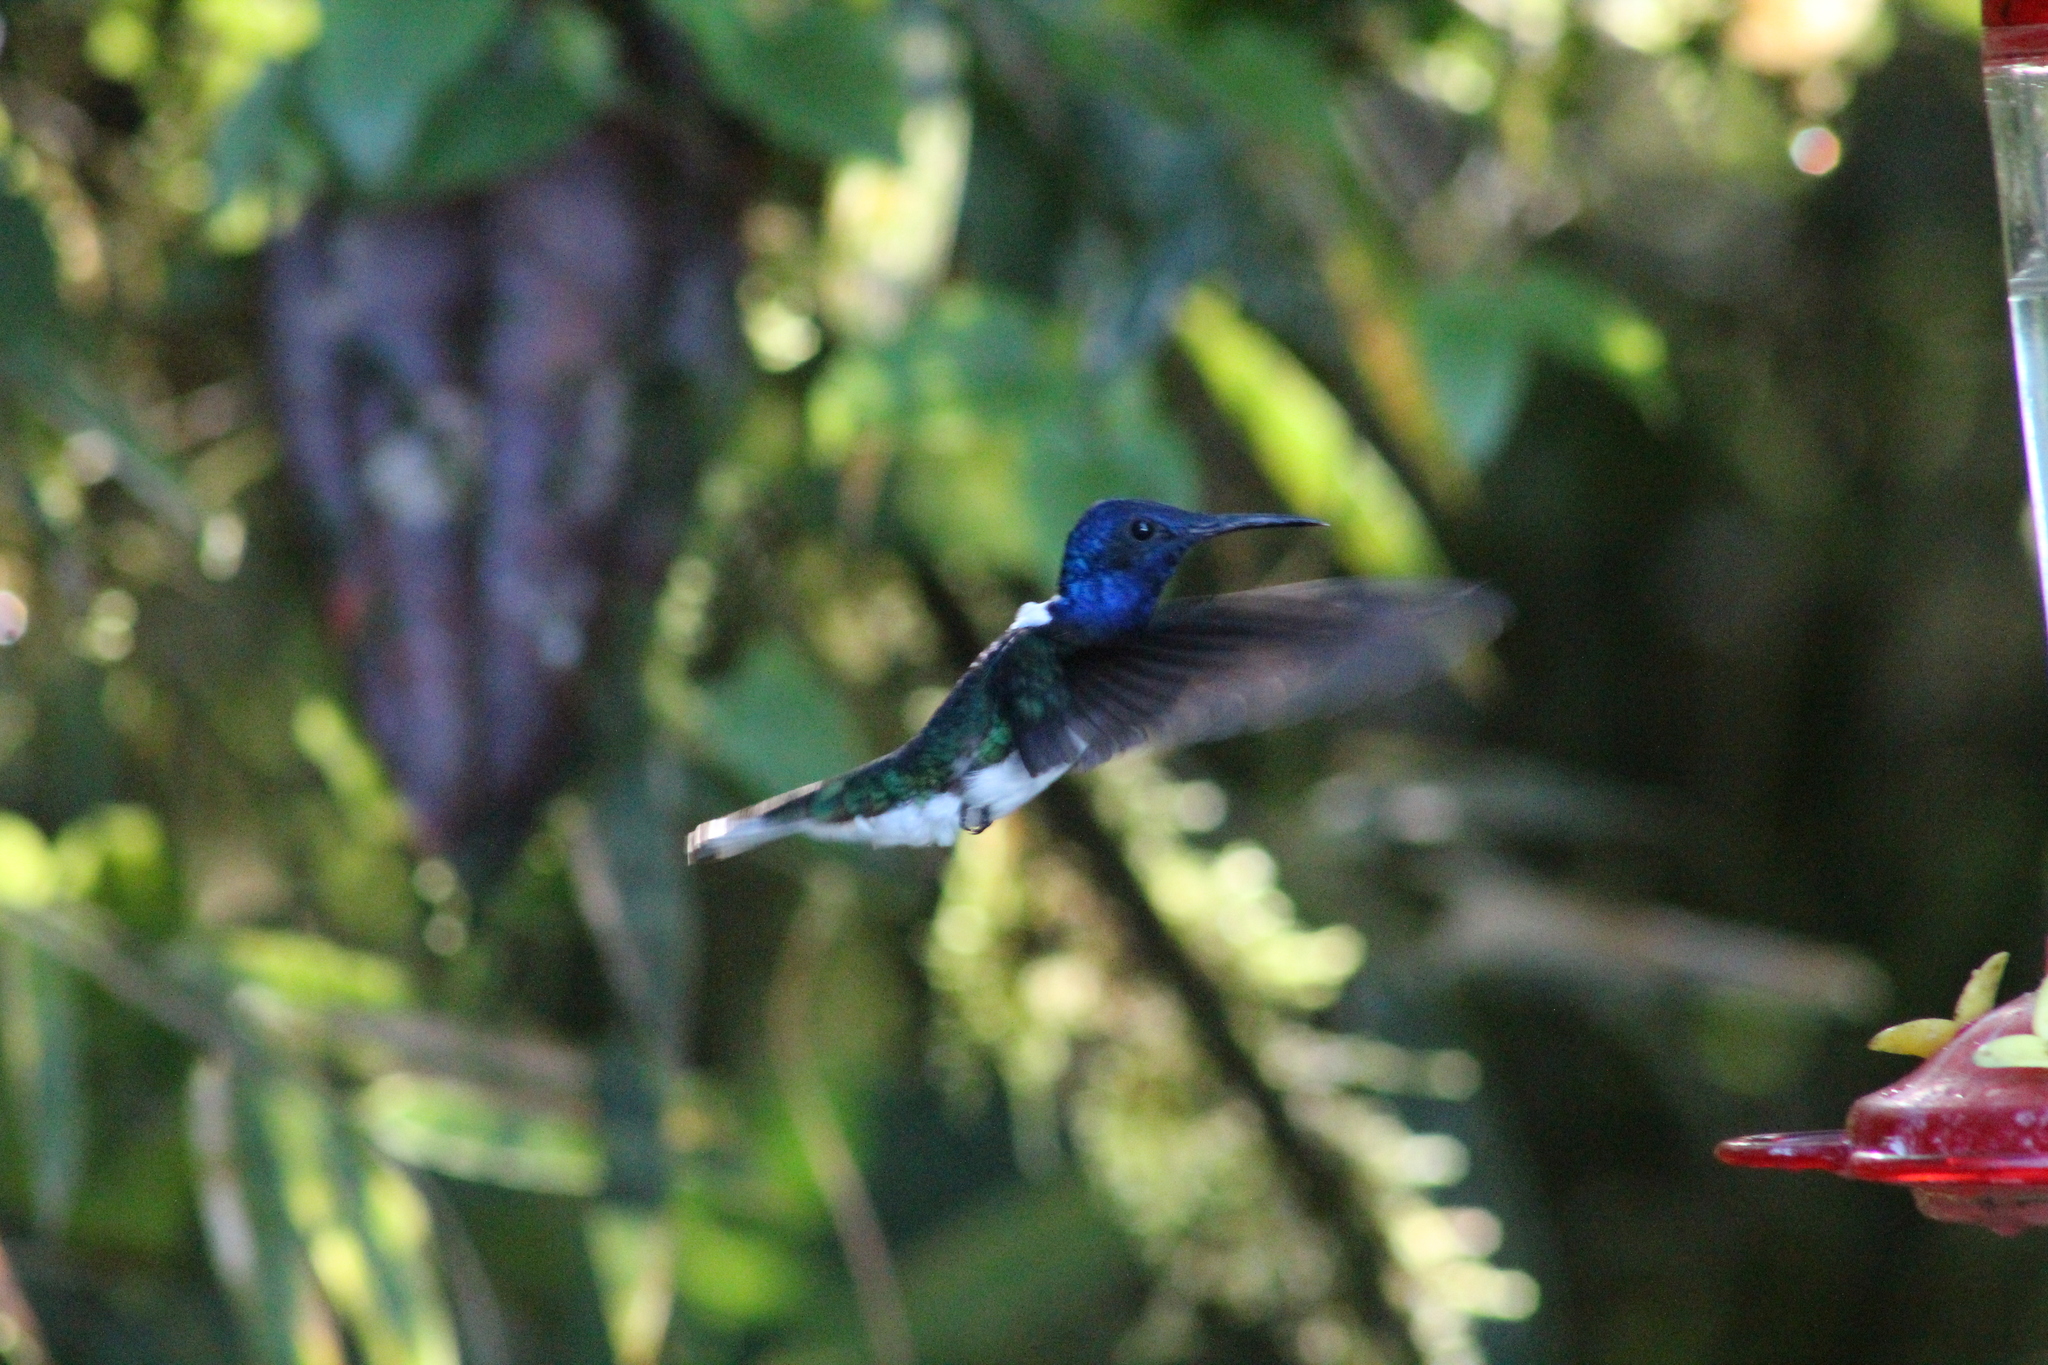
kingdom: Animalia
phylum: Chordata
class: Aves
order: Apodiformes
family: Trochilidae
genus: Florisuga
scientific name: Florisuga mellivora
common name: White-necked jacobin
